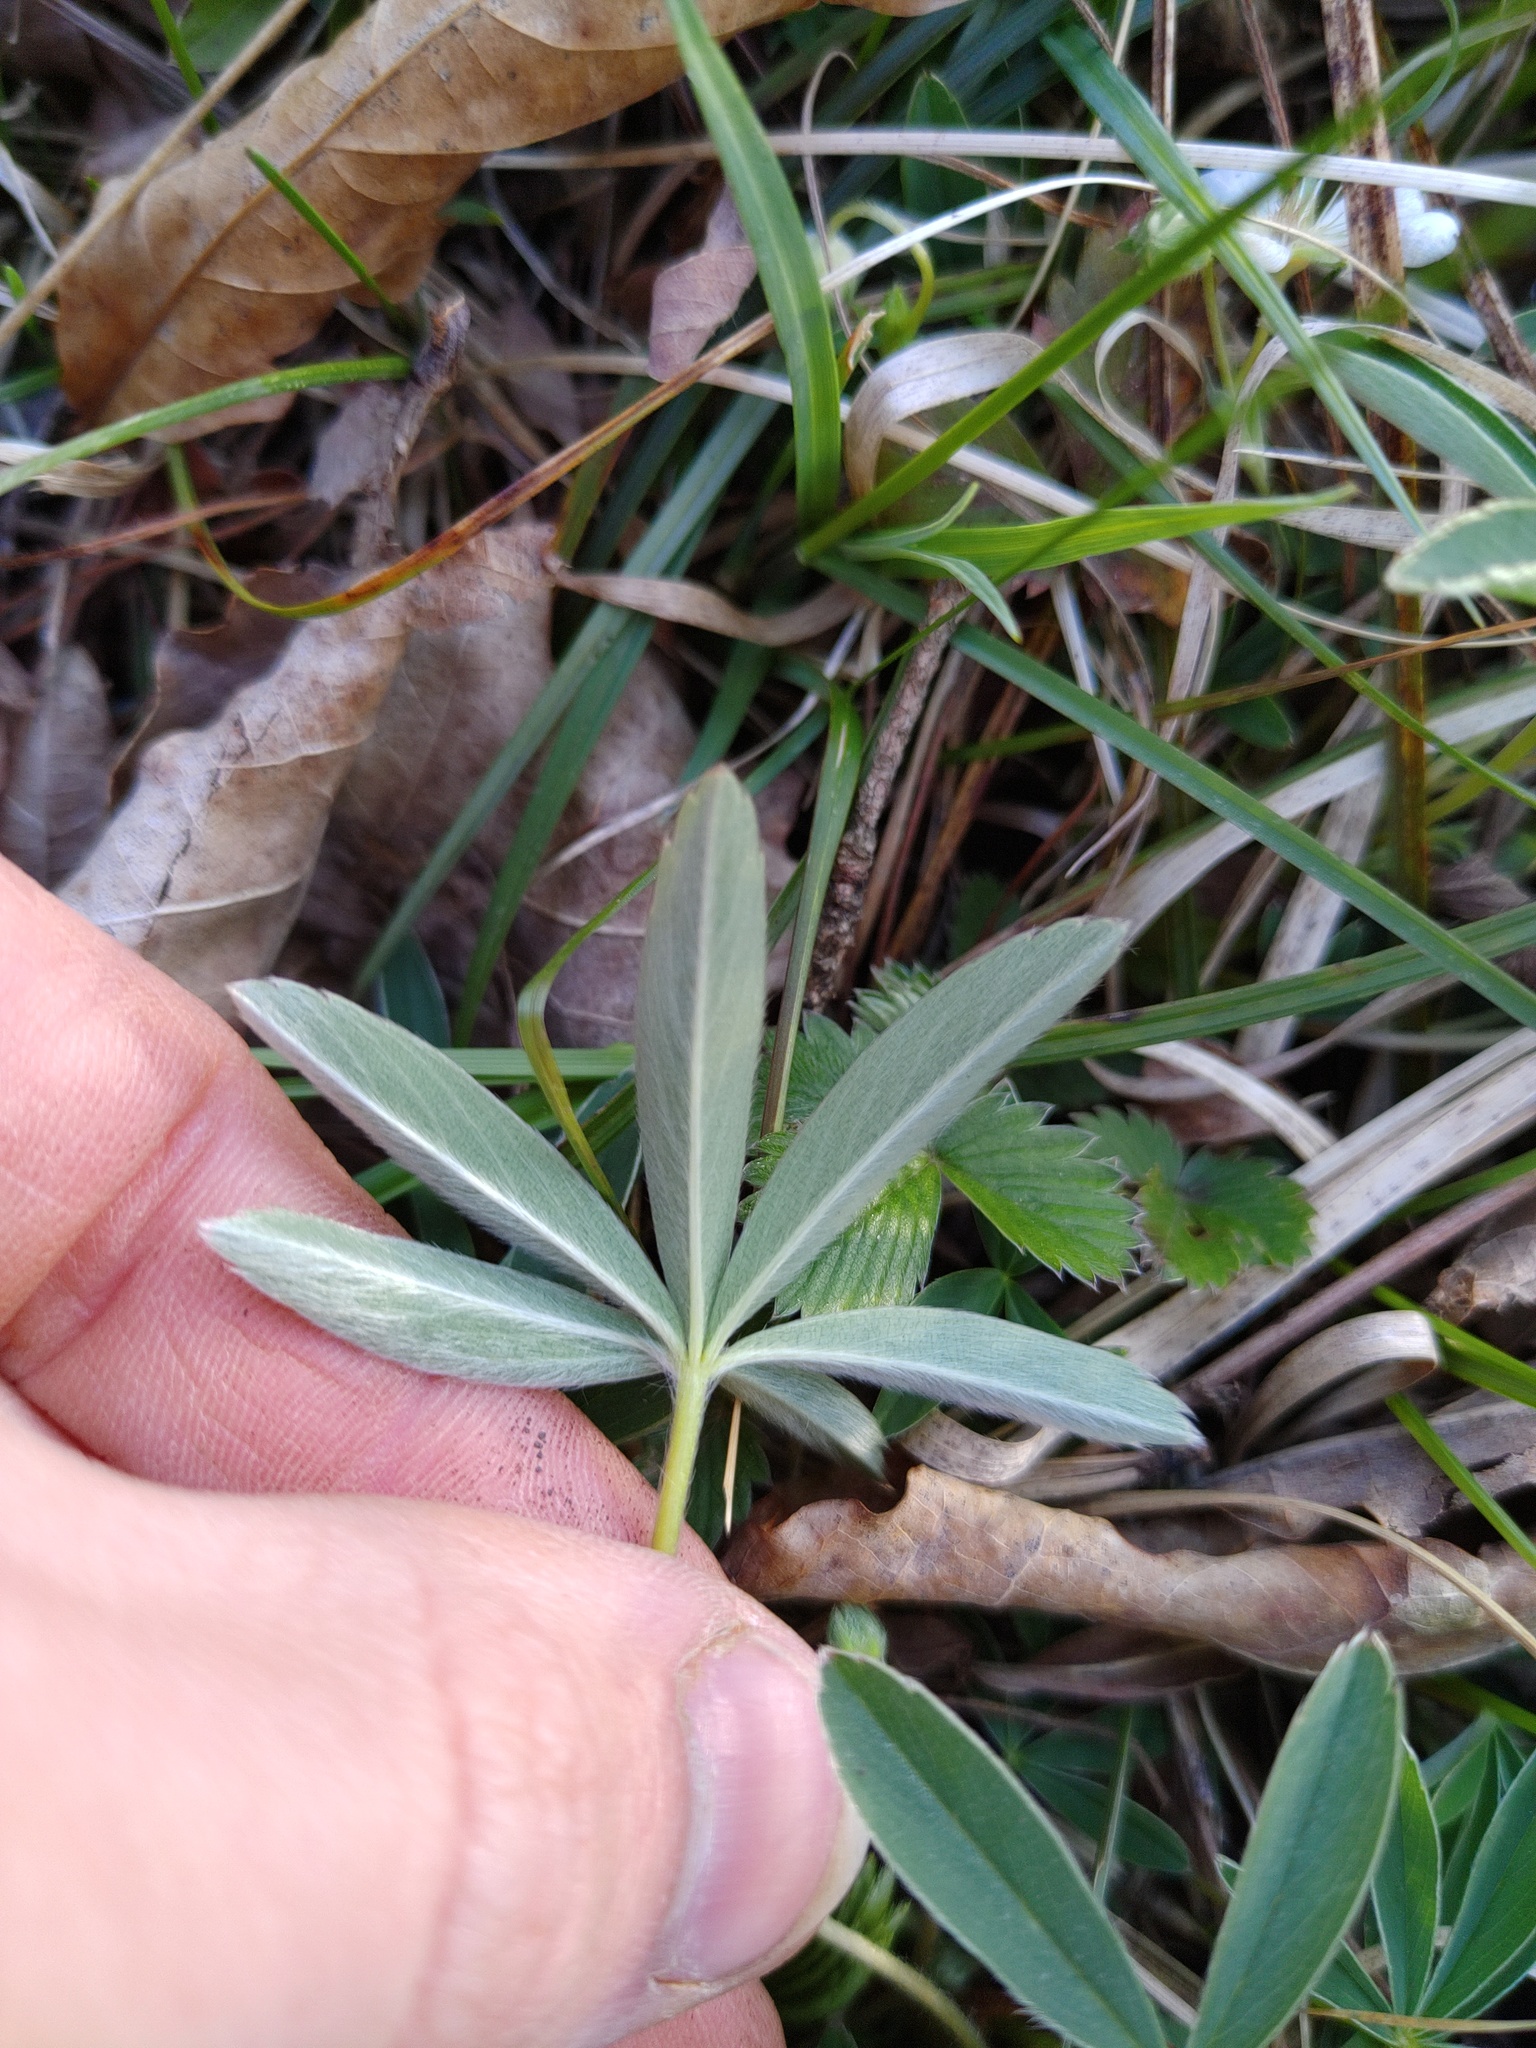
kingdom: Plantae
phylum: Tracheophyta
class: Magnoliopsida
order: Rosales
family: Rosaceae
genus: Potentilla
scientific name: Potentilla alba
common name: White cinquefoil
